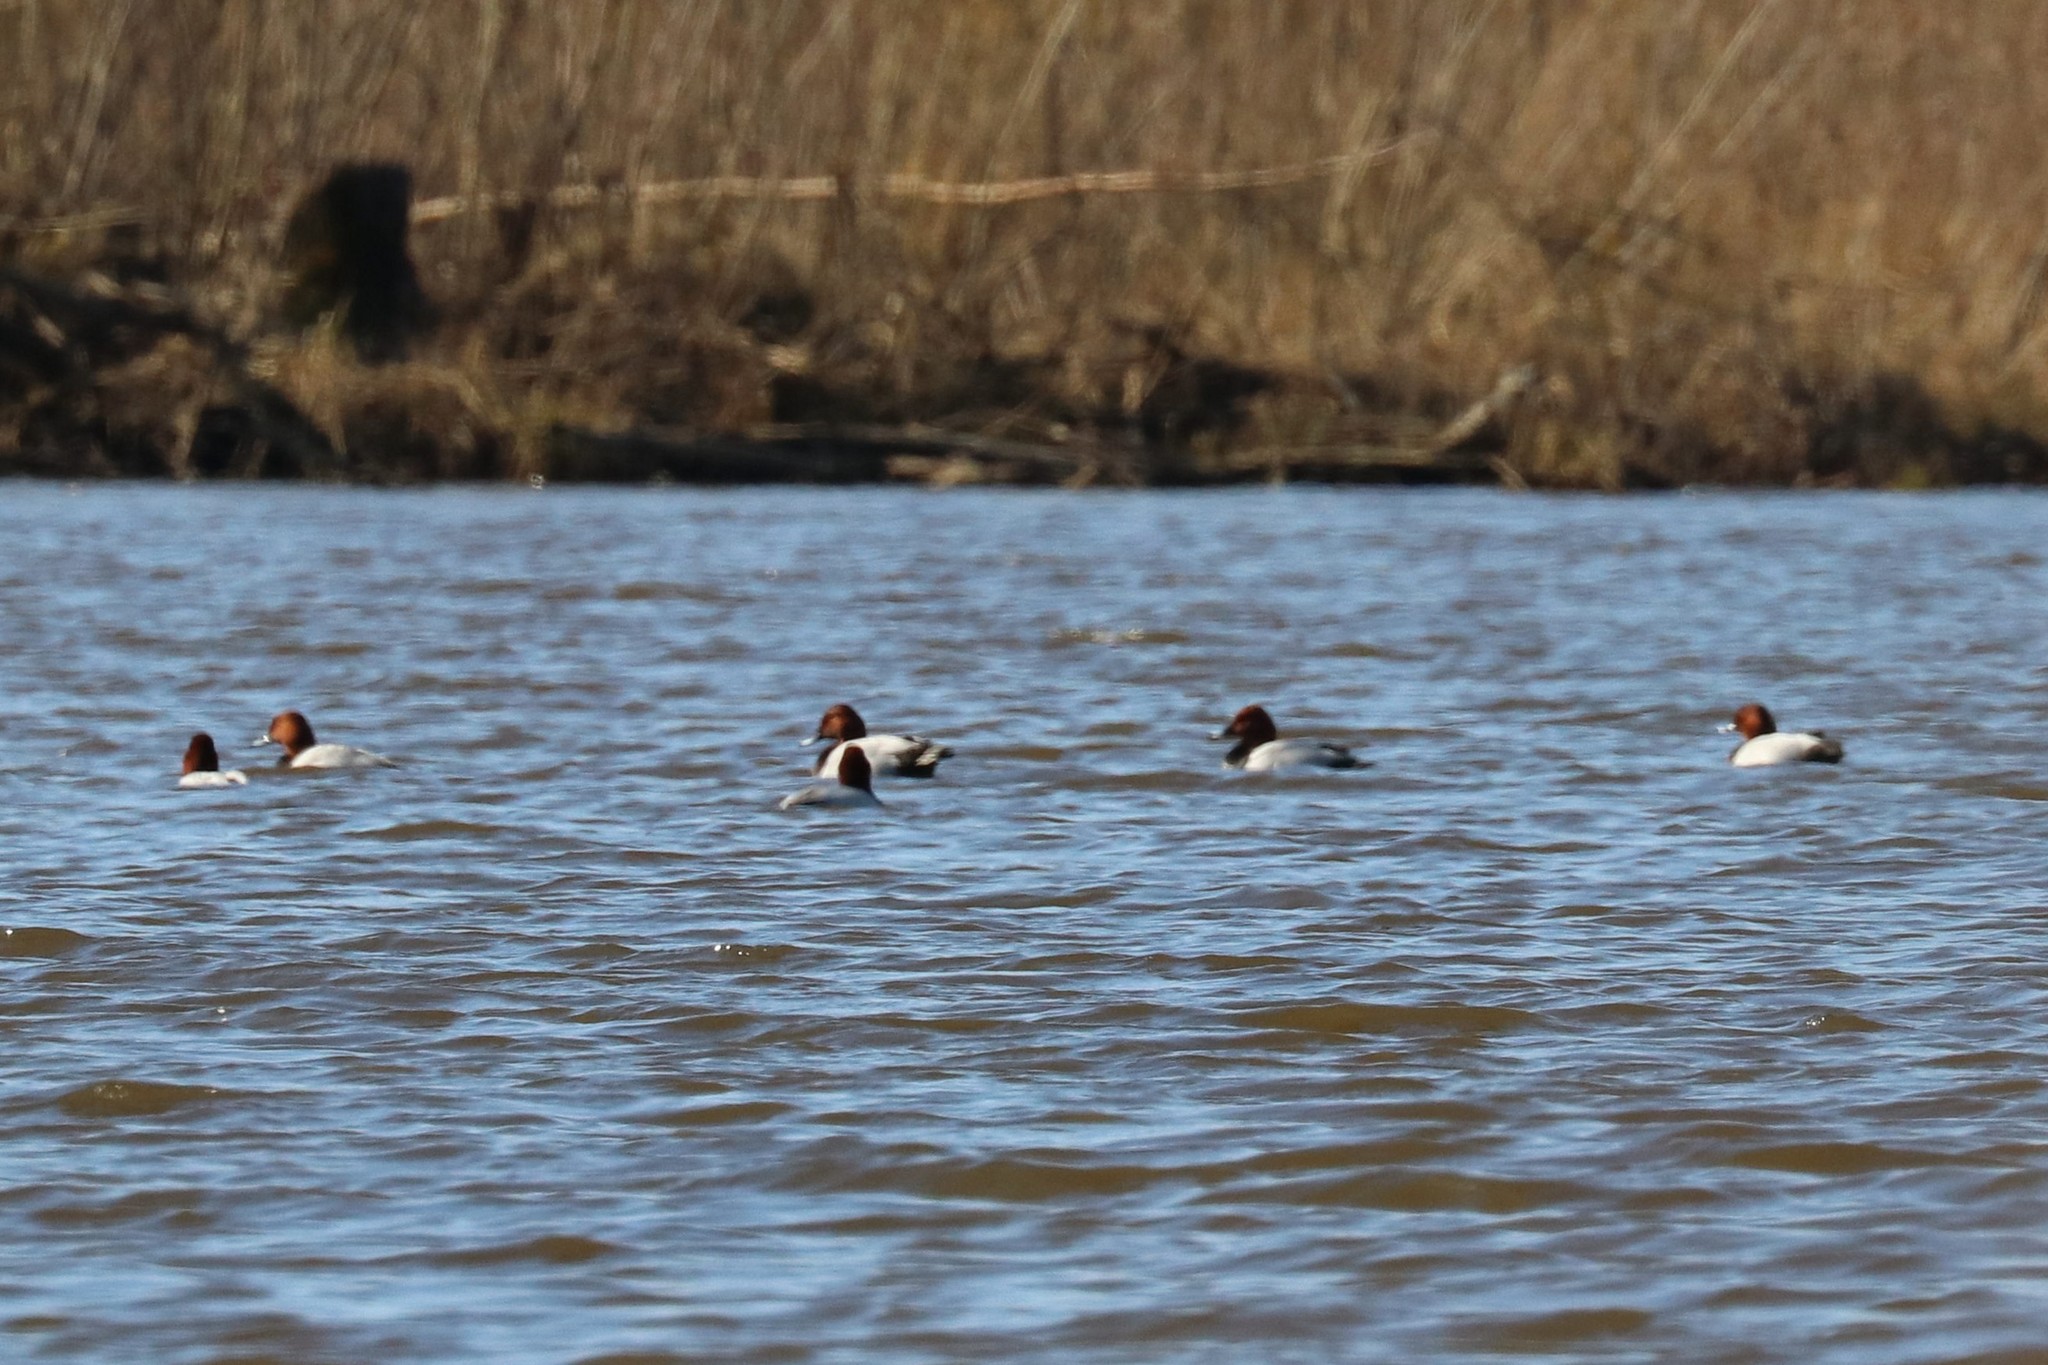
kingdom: Animalia
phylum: Chordata
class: Aves
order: Anseriformes
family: Anatidae
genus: Aythya
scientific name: Aythya ferina
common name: Common pochard
